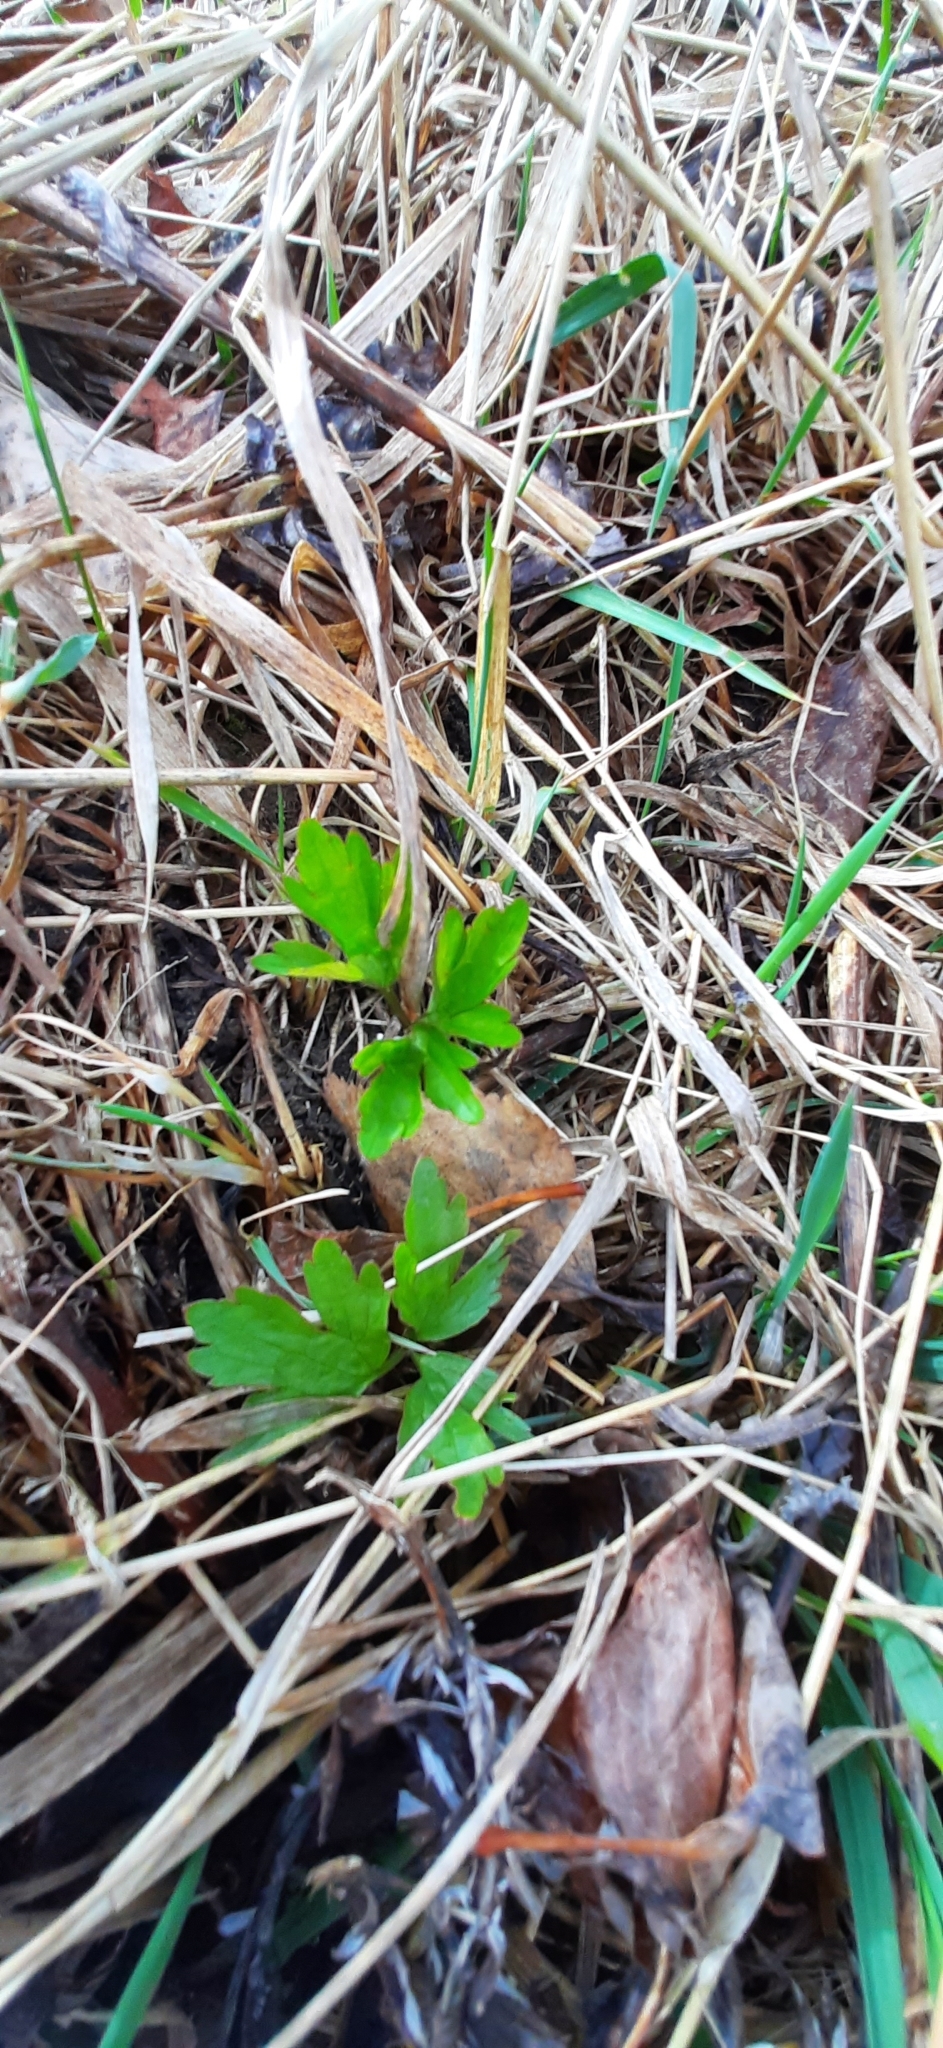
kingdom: Plantae
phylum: Tracheophyta
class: Magnoliopsida
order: Ranunculales
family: Ranunculaceae
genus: Ranunculus
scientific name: Ranunculus repens
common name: Creeping buttercup
